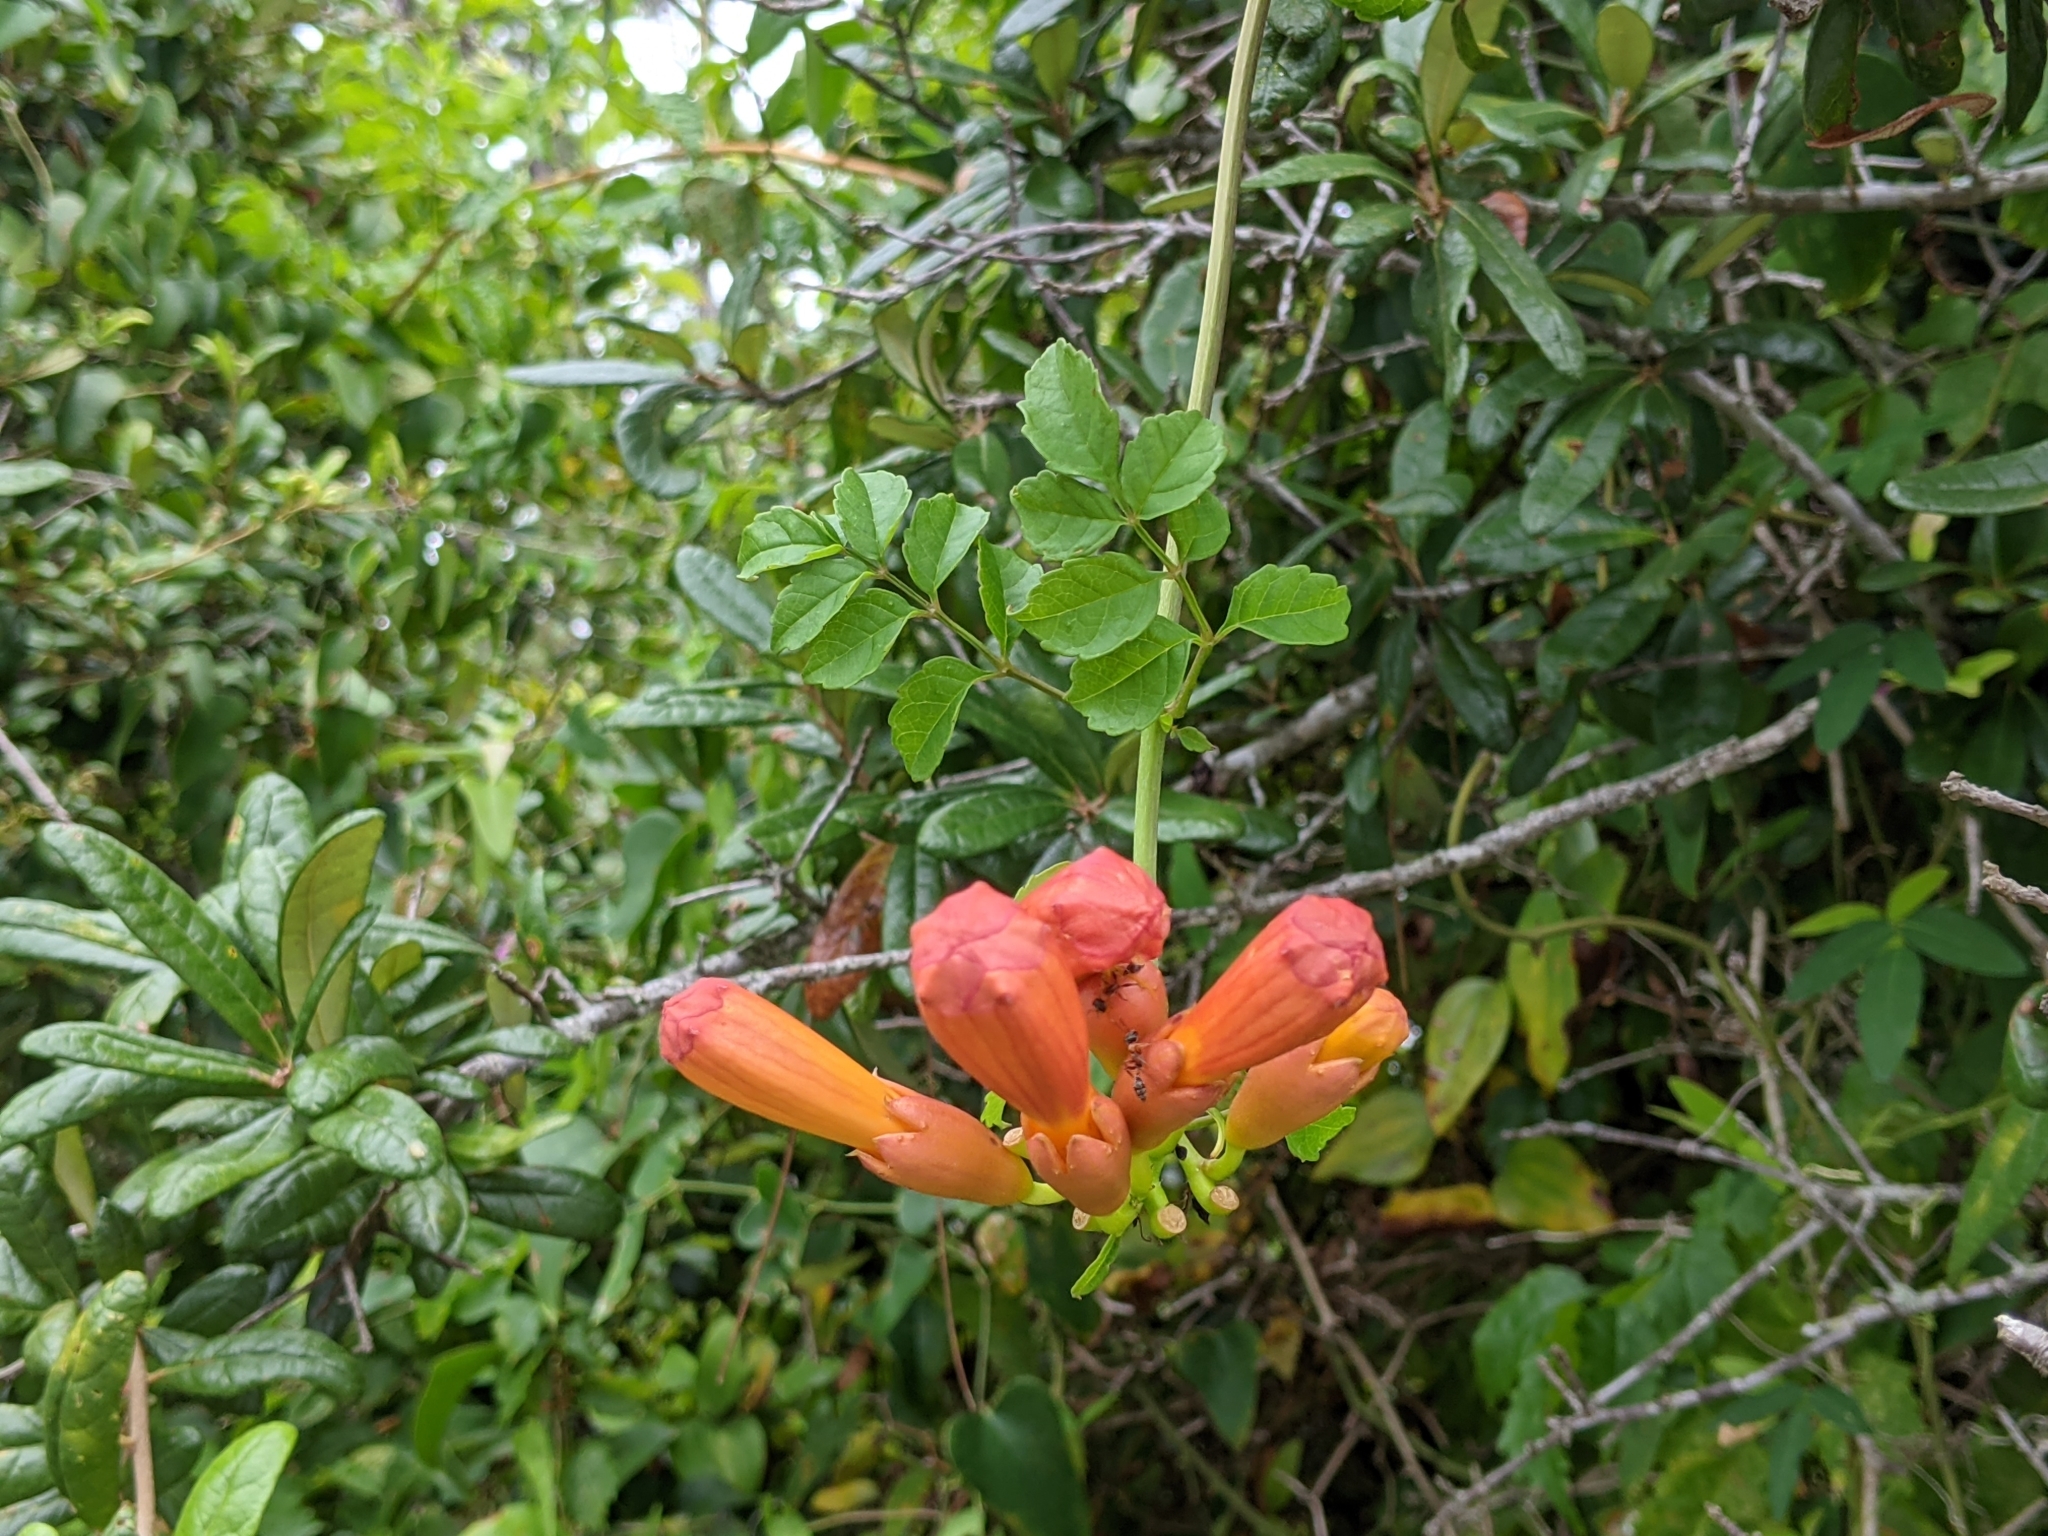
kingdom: Plantae
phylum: Tracheophyta
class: Magnoliopsida
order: Lamiales
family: Bignoniaceae
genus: Campsis
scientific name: Campsis radicans
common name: Trumpet-creeper
